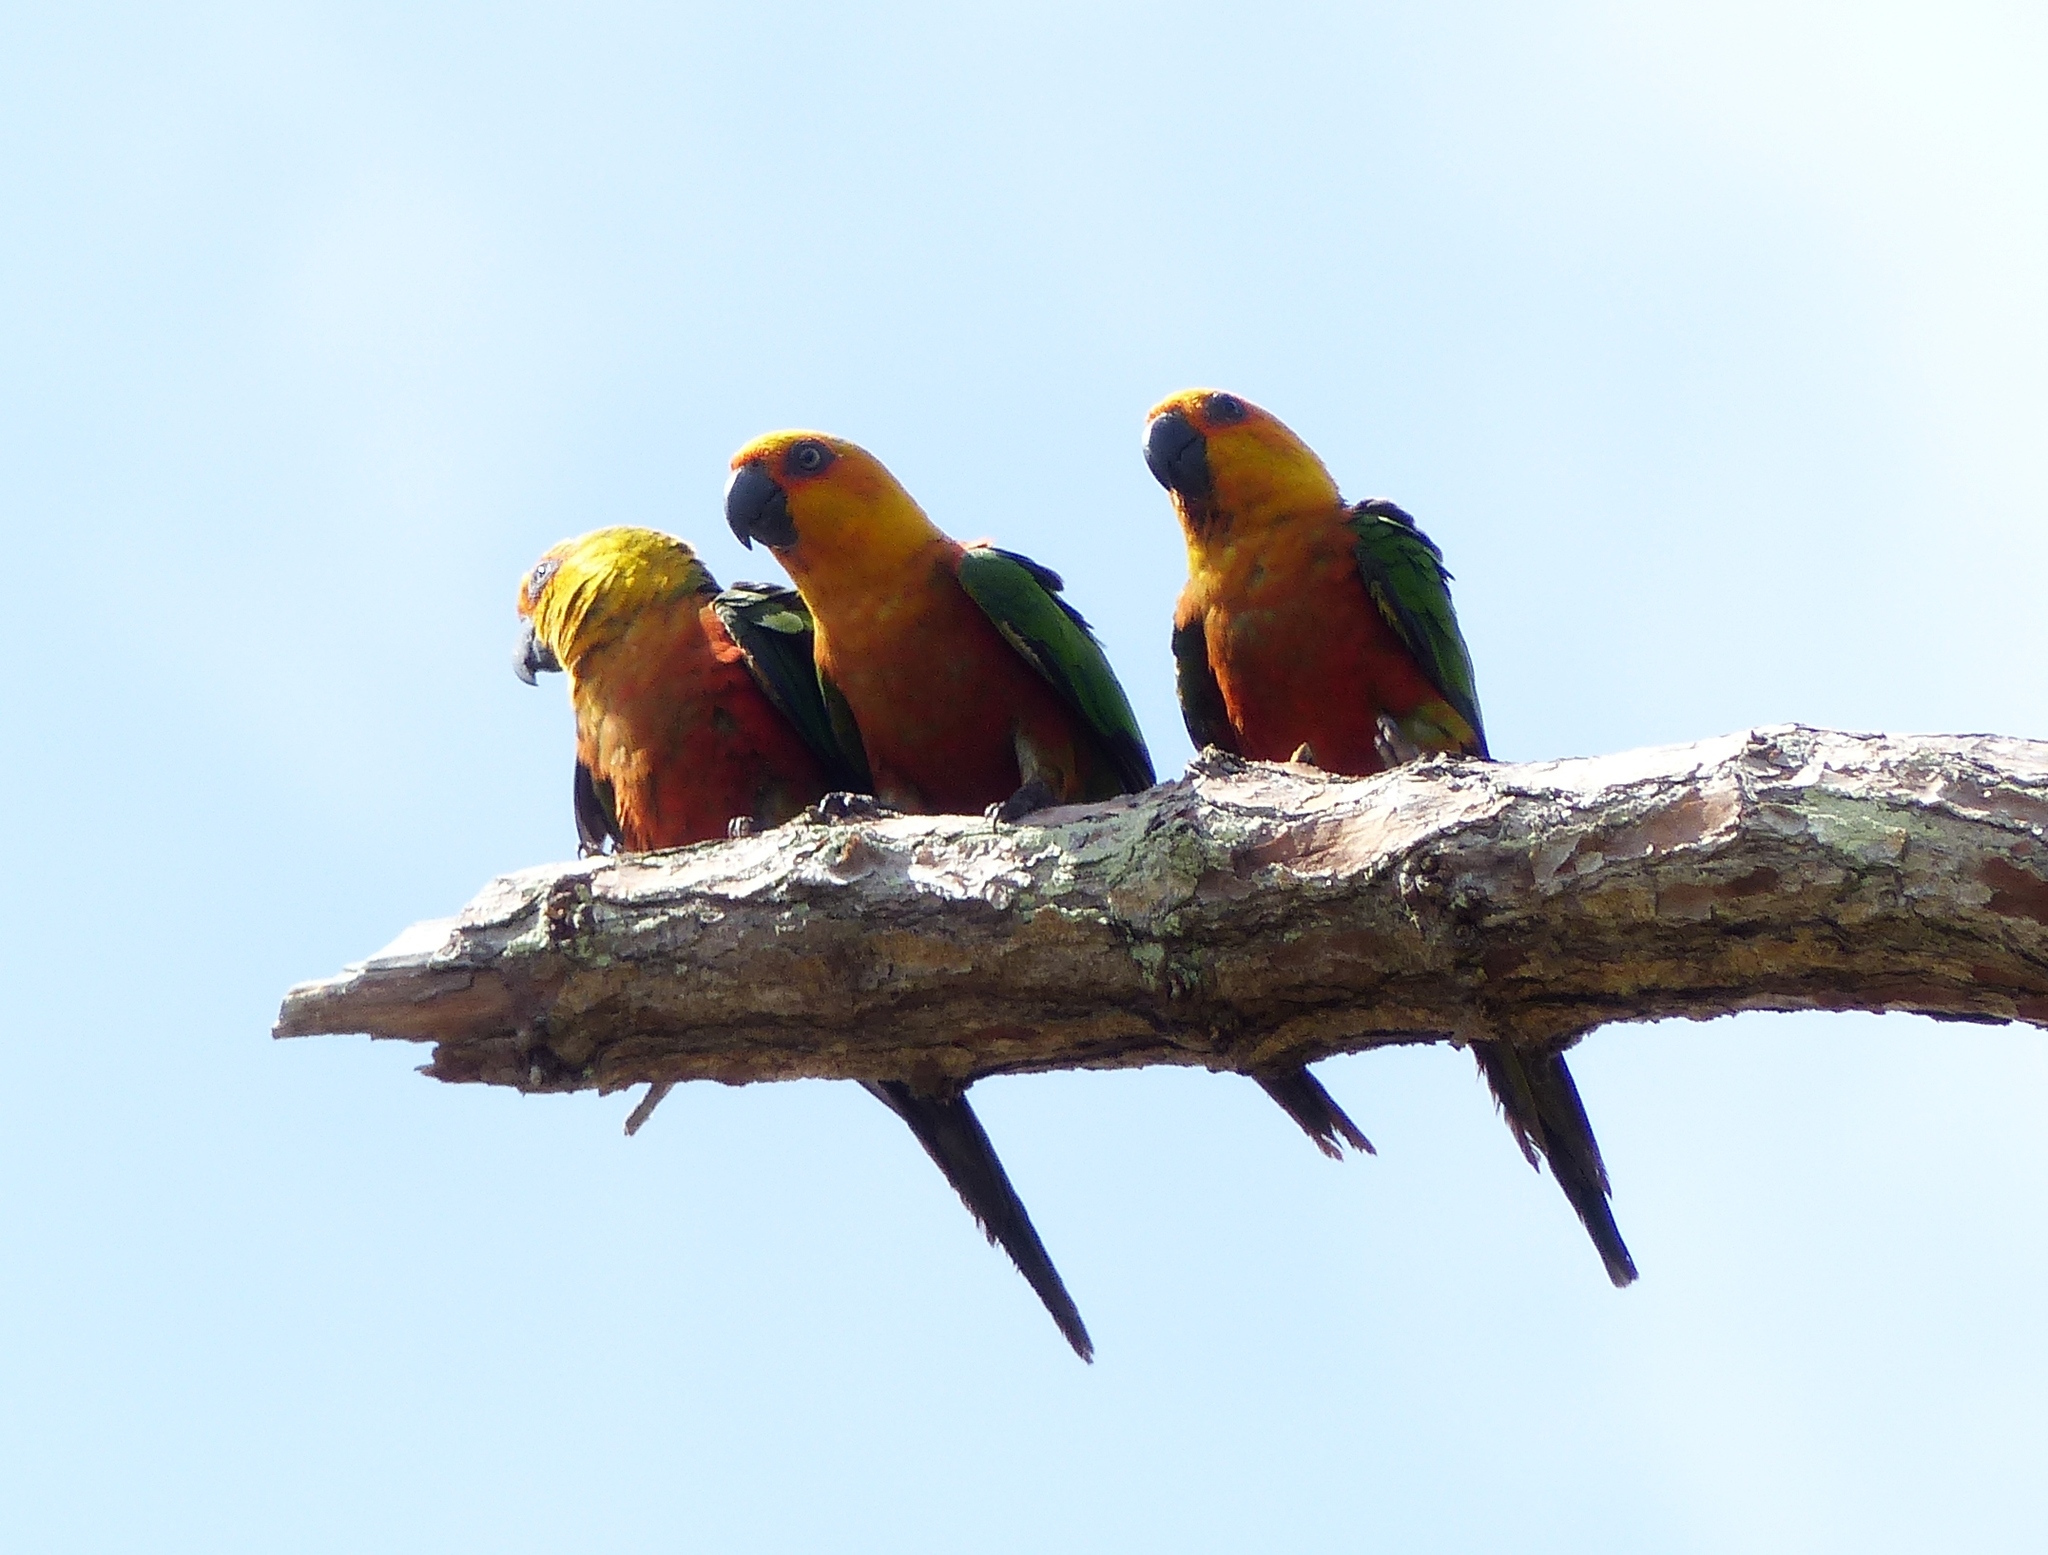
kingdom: Animalia
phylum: Chordata
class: Aves
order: Psittaciformes
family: Psittacidae
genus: Aratinga
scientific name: Aratinga jandaya
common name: Jandaya parakeet
